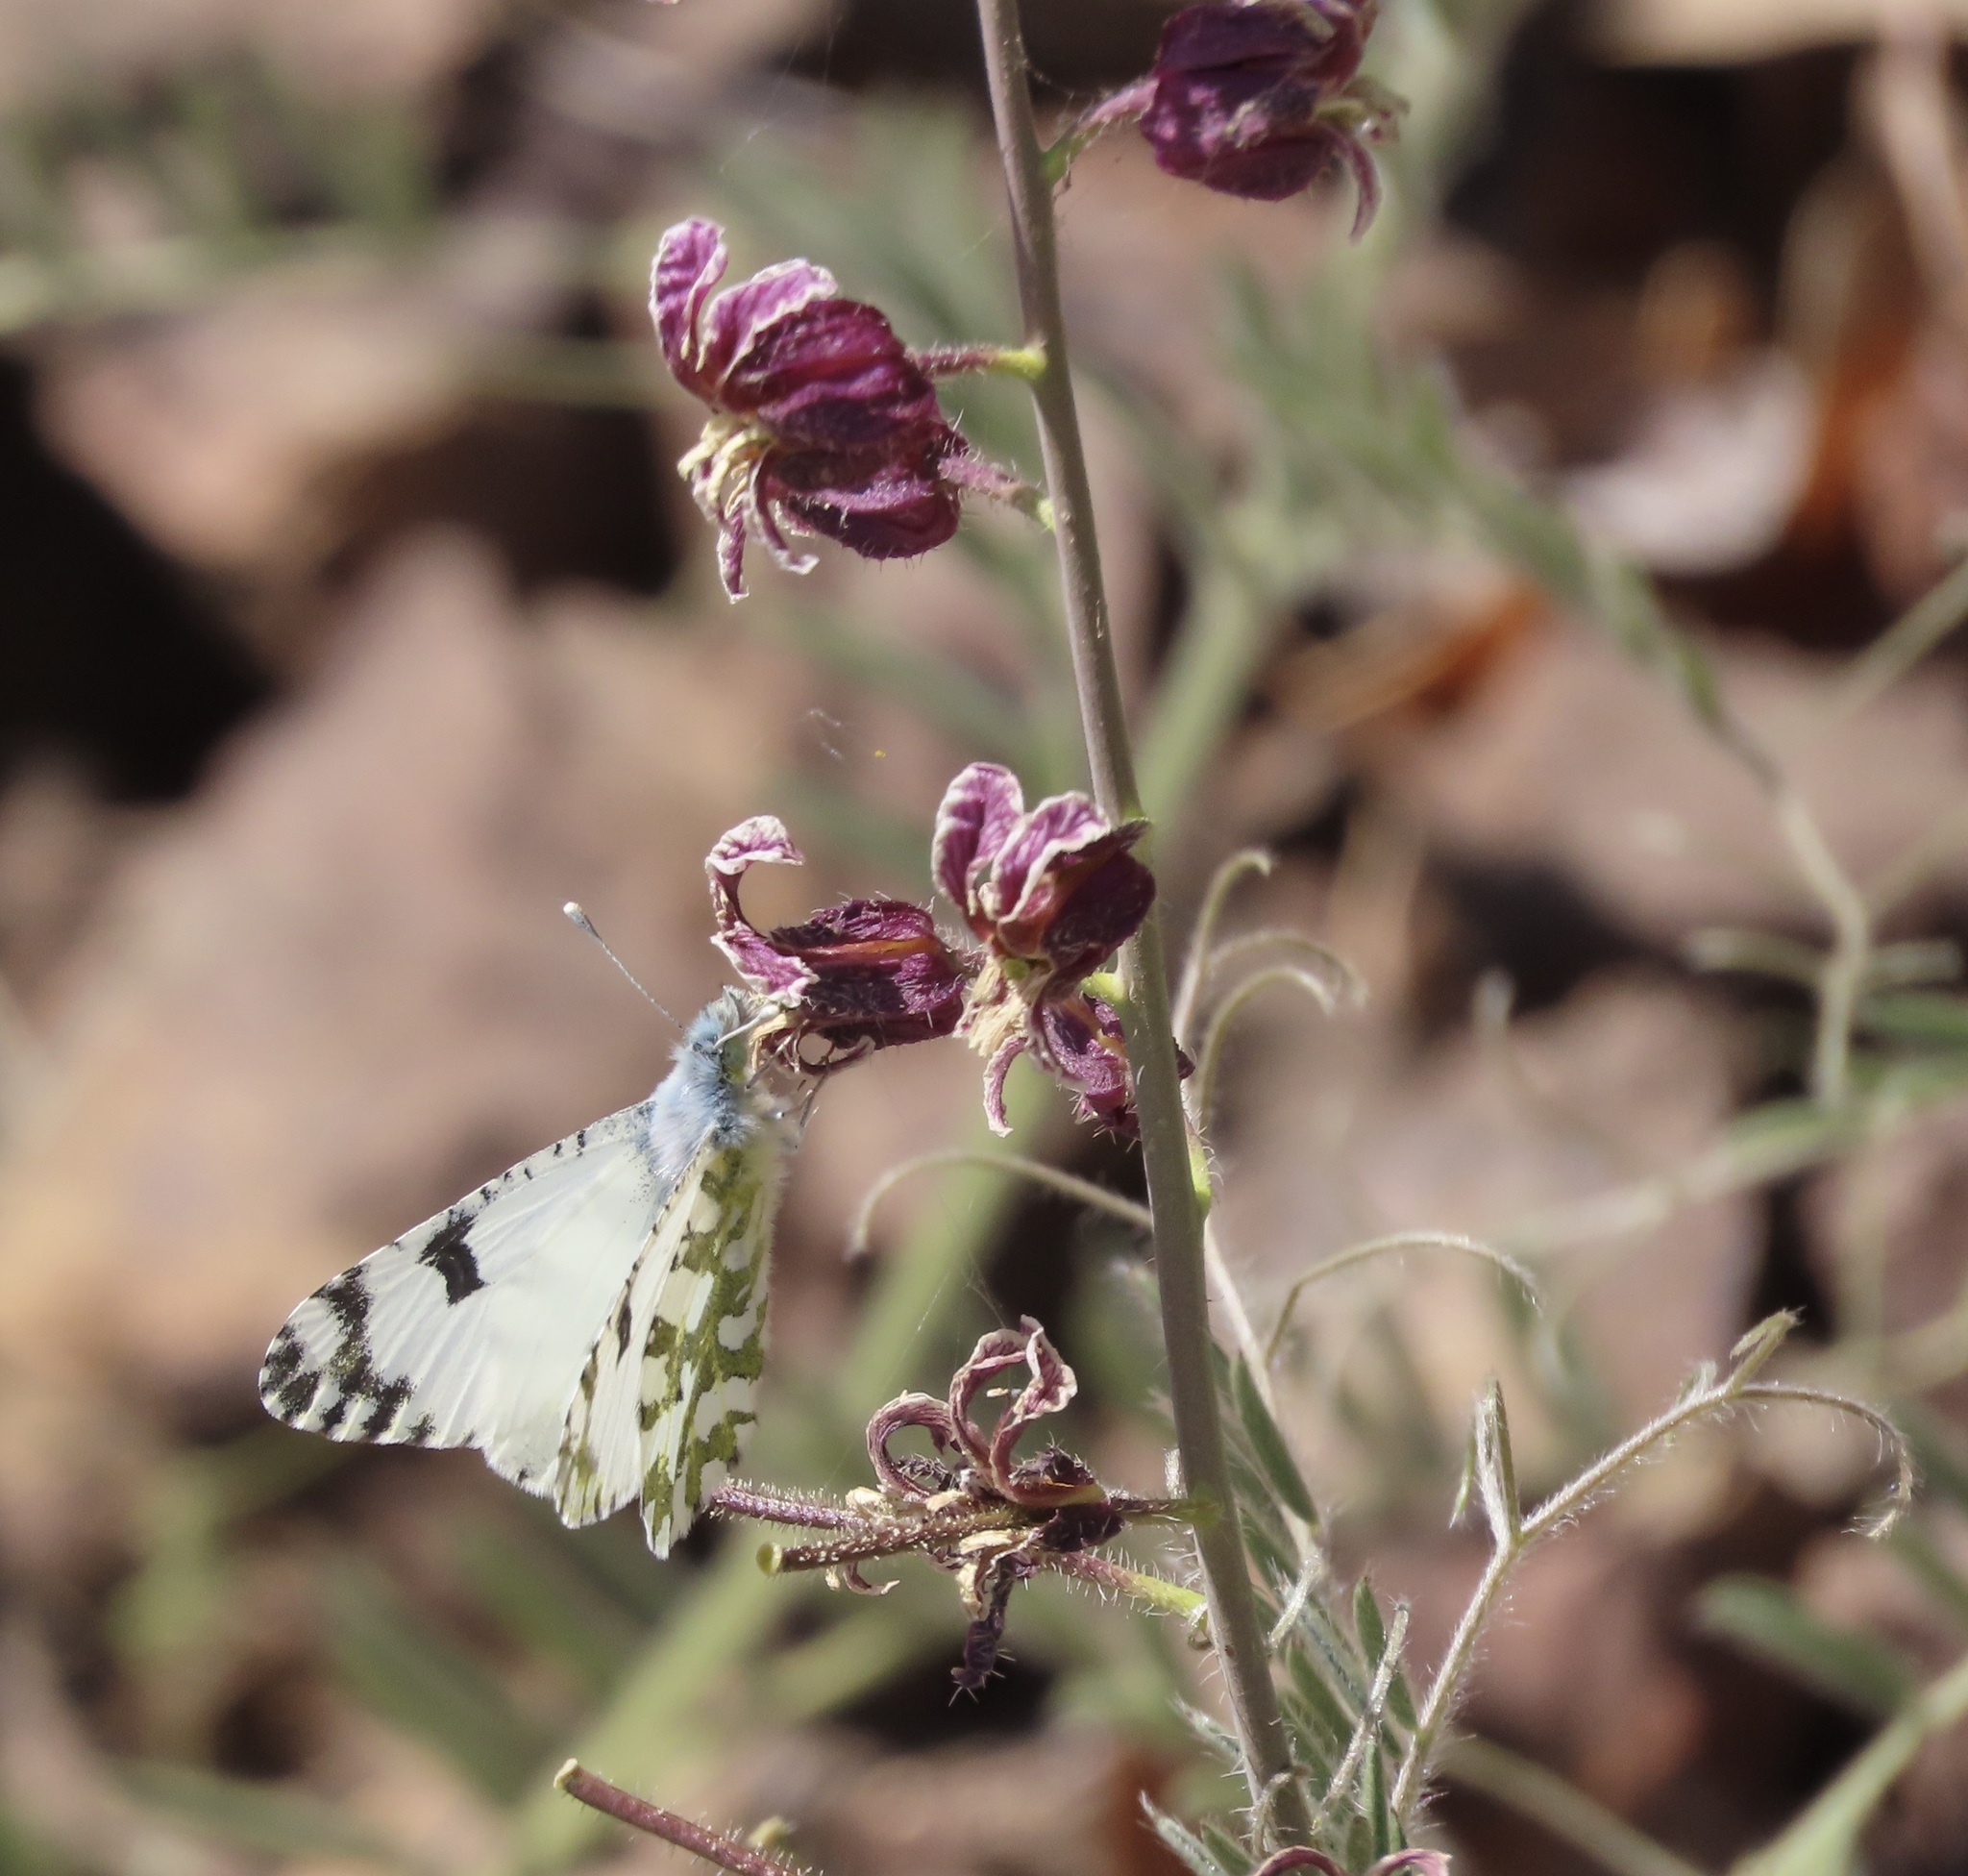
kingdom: Animalia
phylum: Arthropoda
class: Insecta
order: Lepidoptera
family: Pieridae
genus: Euchloe
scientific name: Euchloe hyantis
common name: California marble
